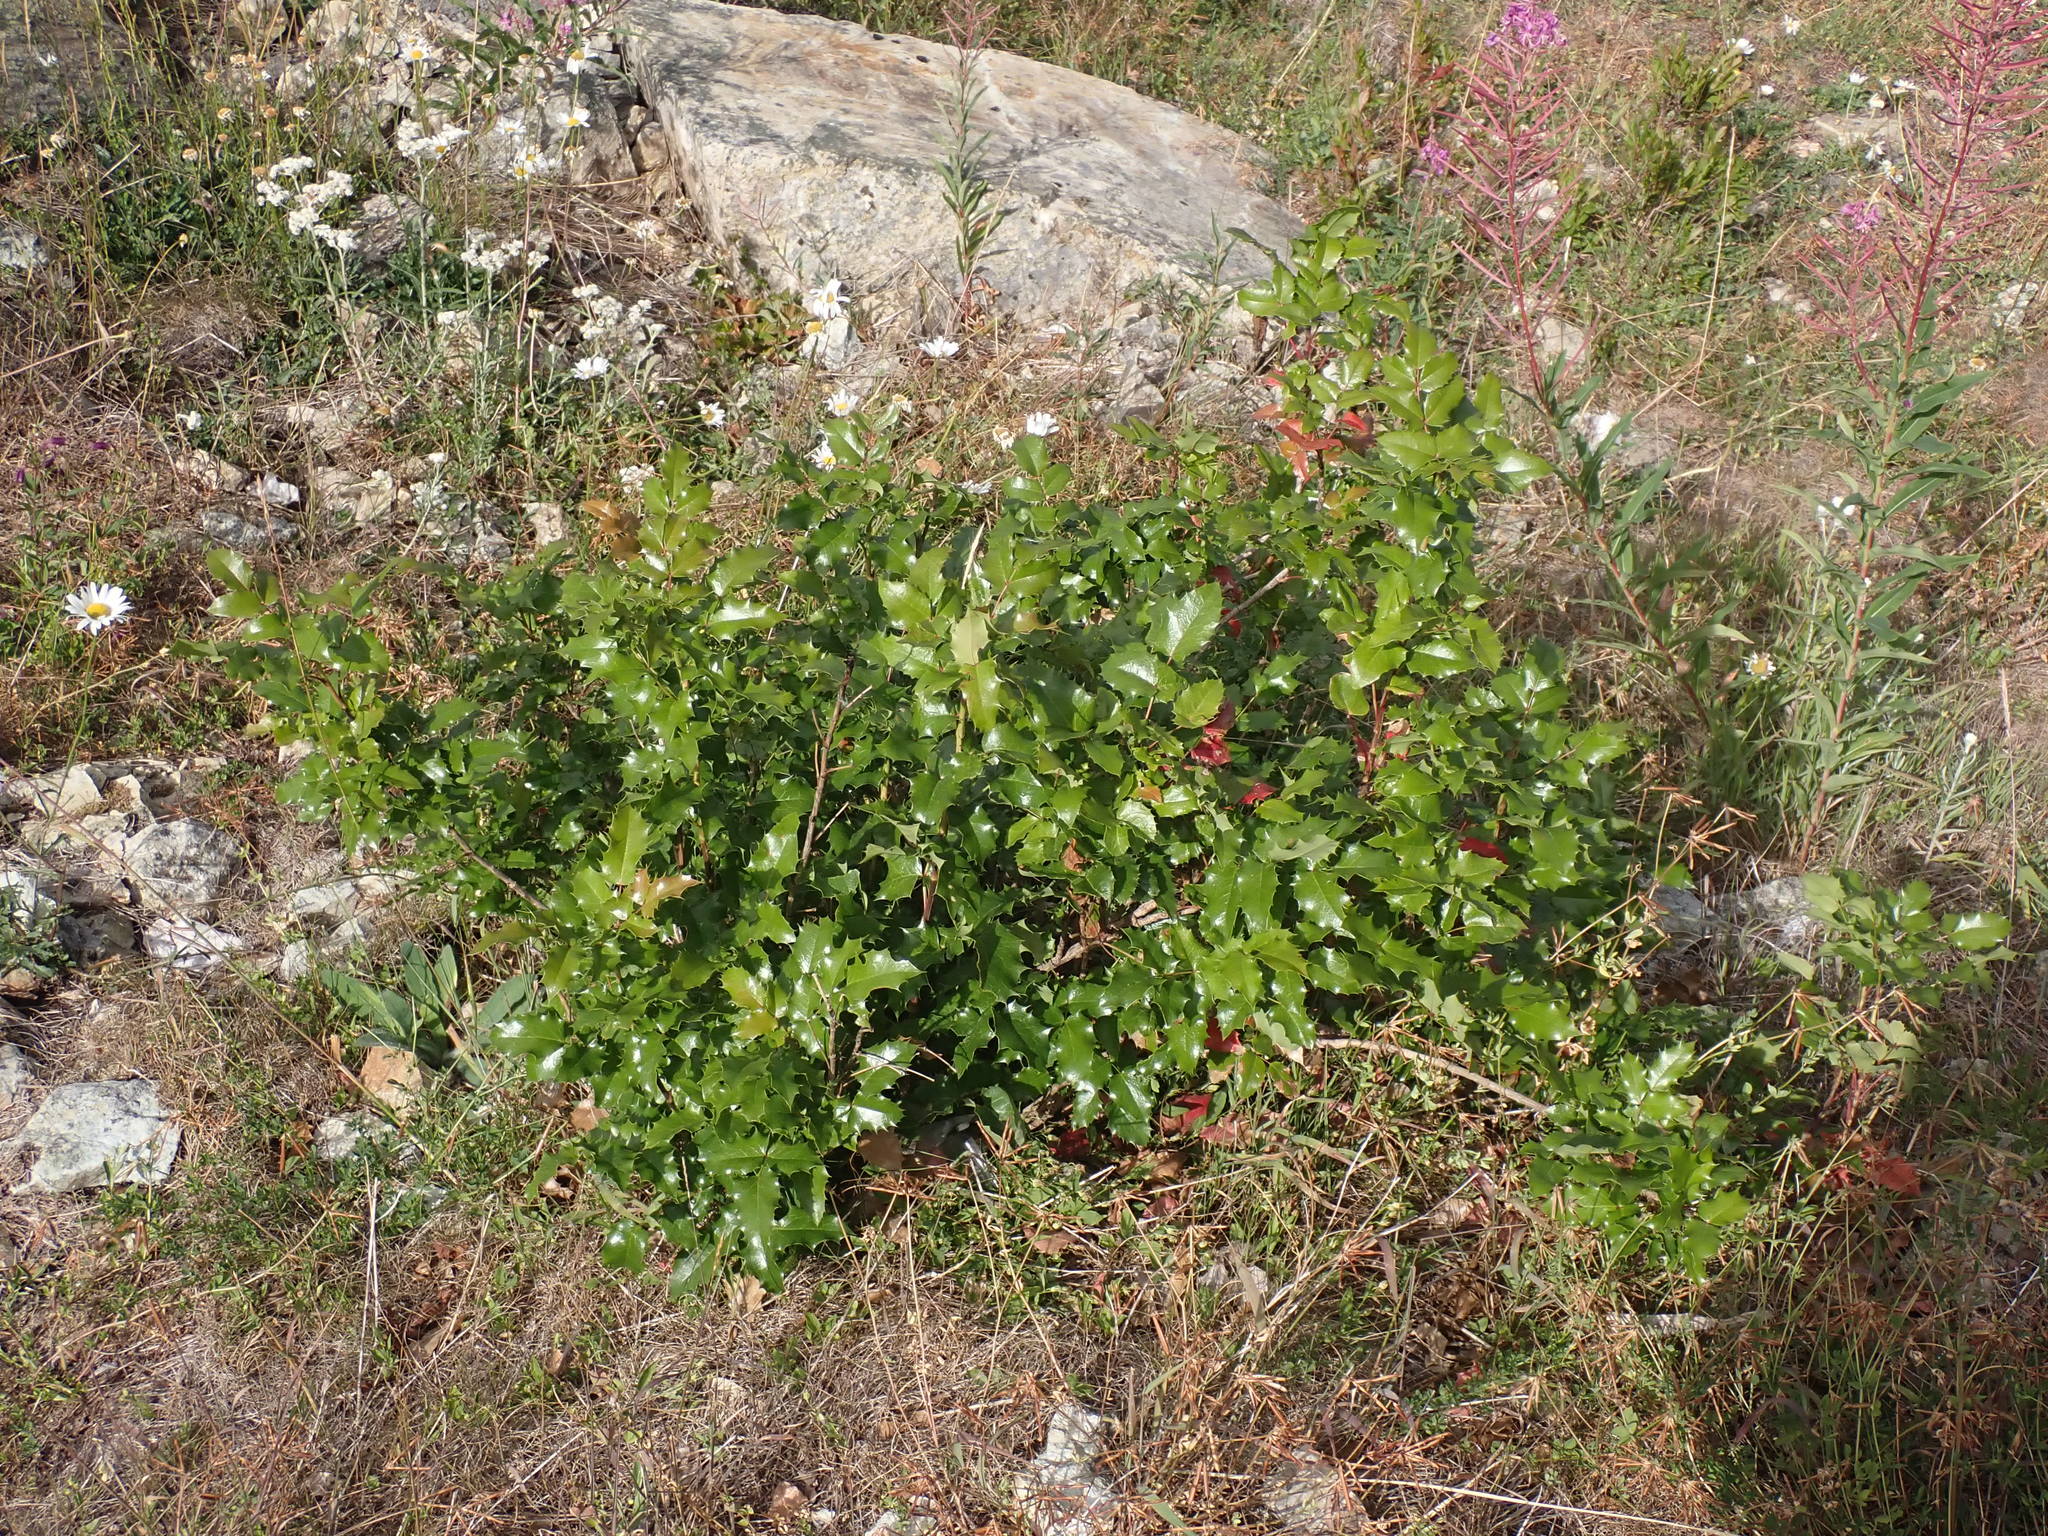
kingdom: Plantae
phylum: Tracheophyta
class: Magnoliopsida
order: Ranunculales
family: Berberidaceae
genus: Mahonia
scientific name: Mahonia aquifolium
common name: Oregon-grape
